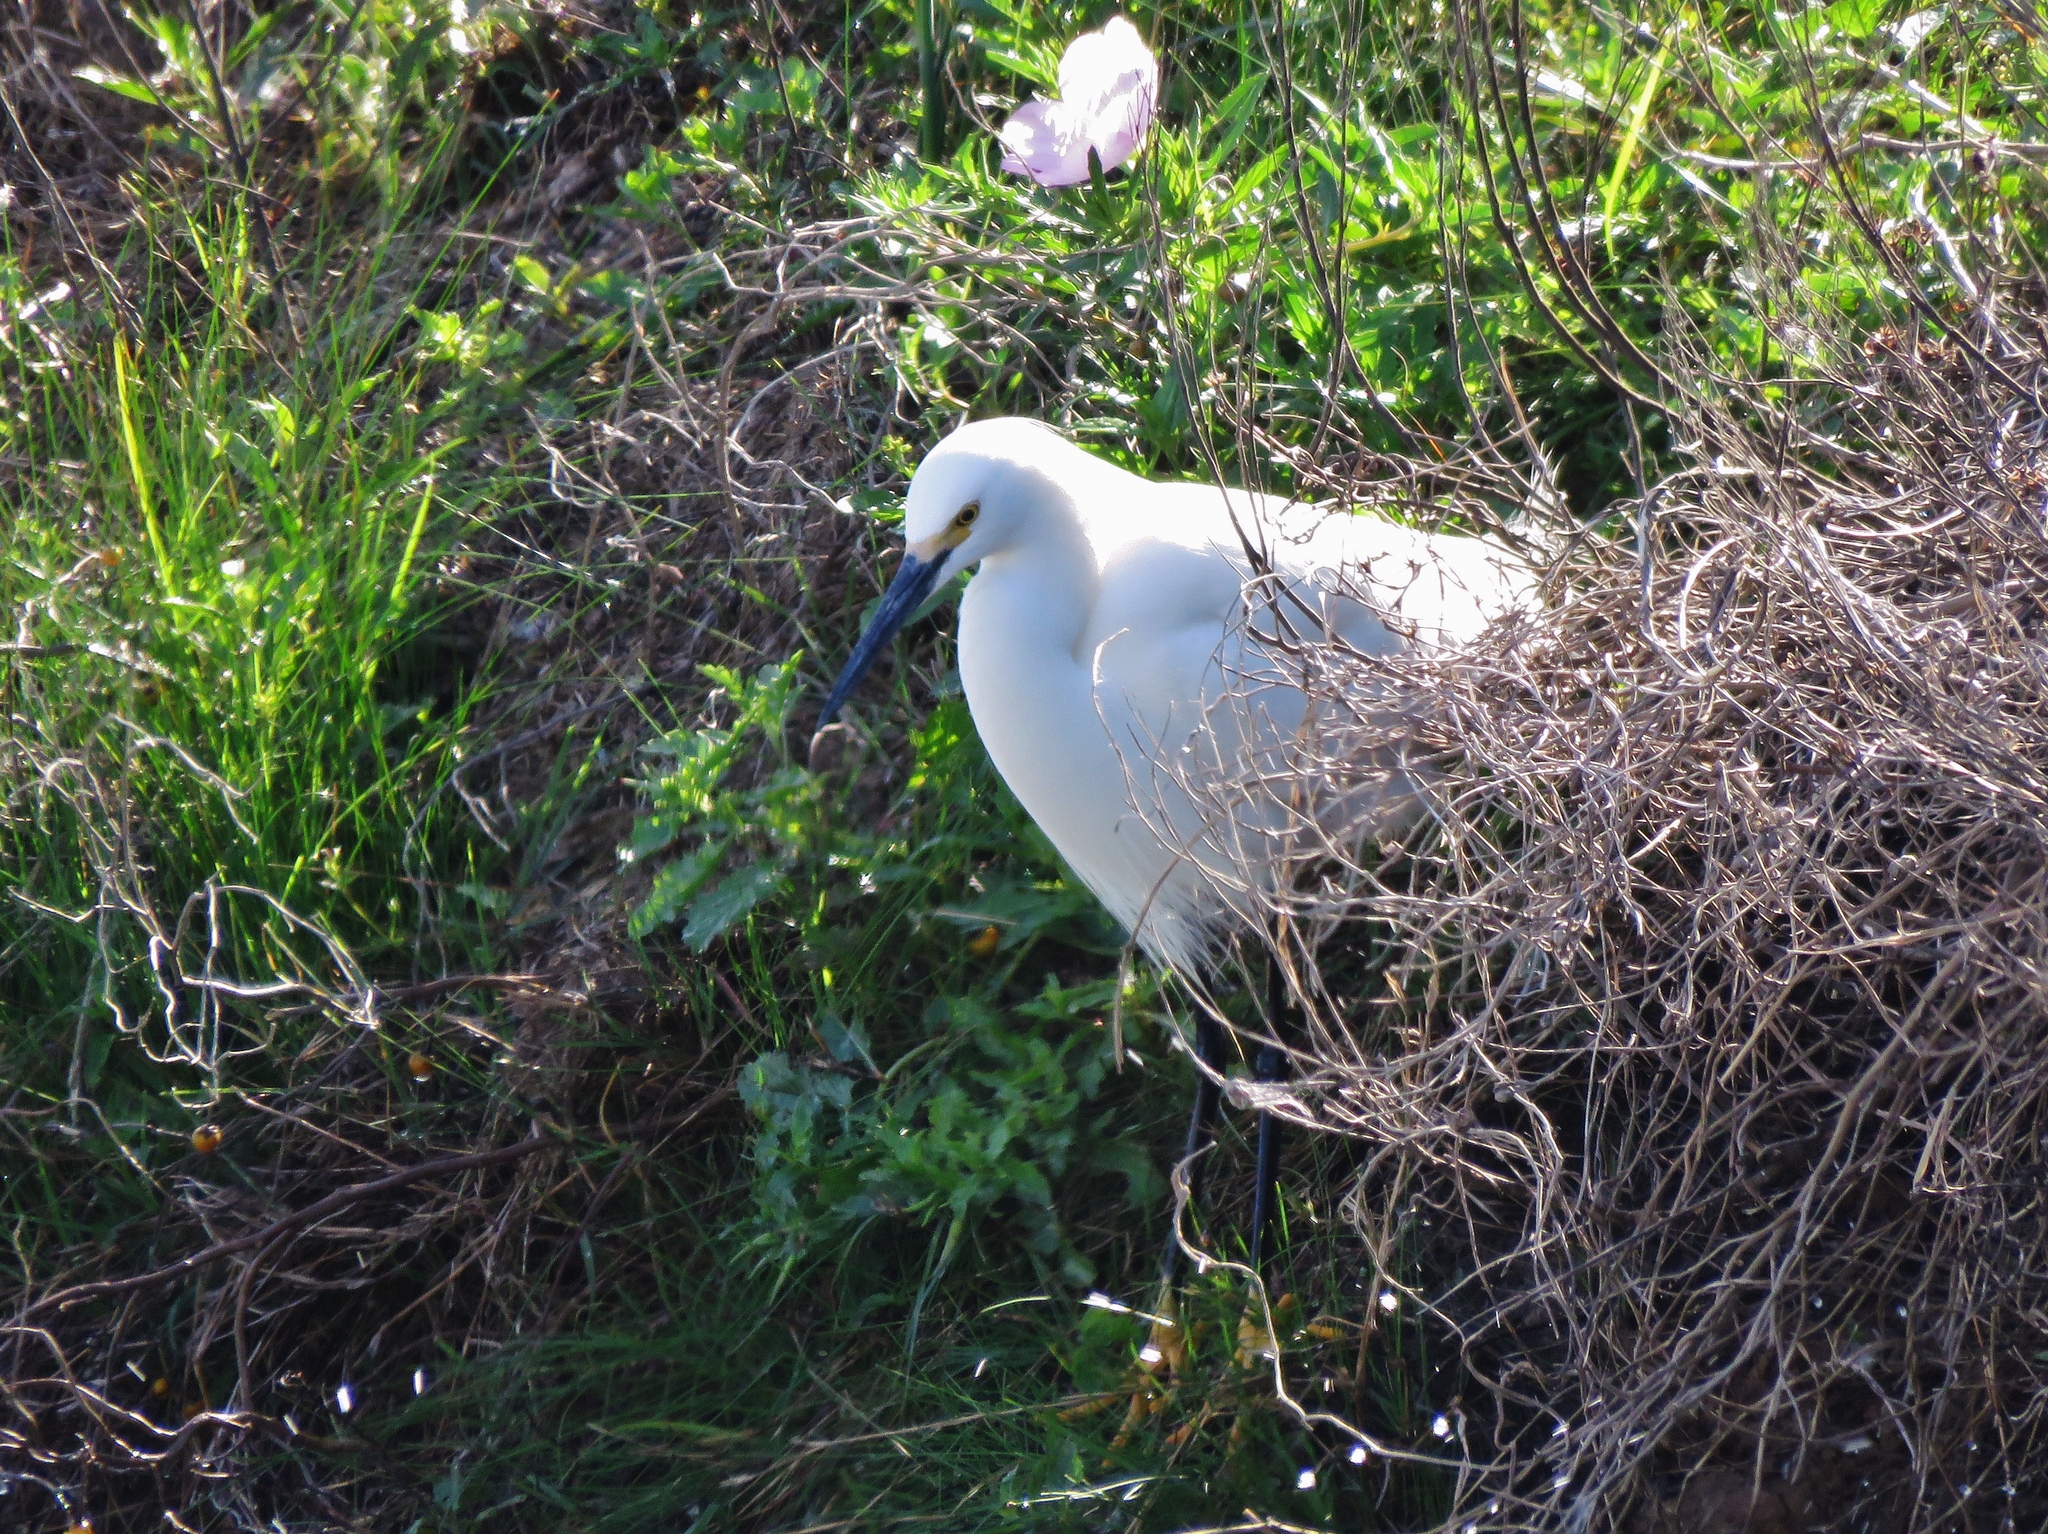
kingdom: Animalia
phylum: Chordata
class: Aves
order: Pelecaniformes
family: Ardeidae
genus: Egretta
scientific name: Egretta thula
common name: Snowy egret
